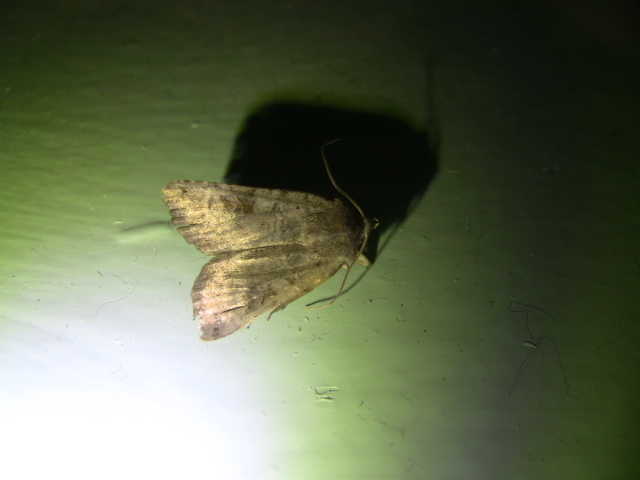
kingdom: Animalia
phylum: Arthropoda
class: Insecta
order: Lepidoptera
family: Noctuidae
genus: Phlogophora
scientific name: Phlogophora periculosa
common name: Brown angle shades
